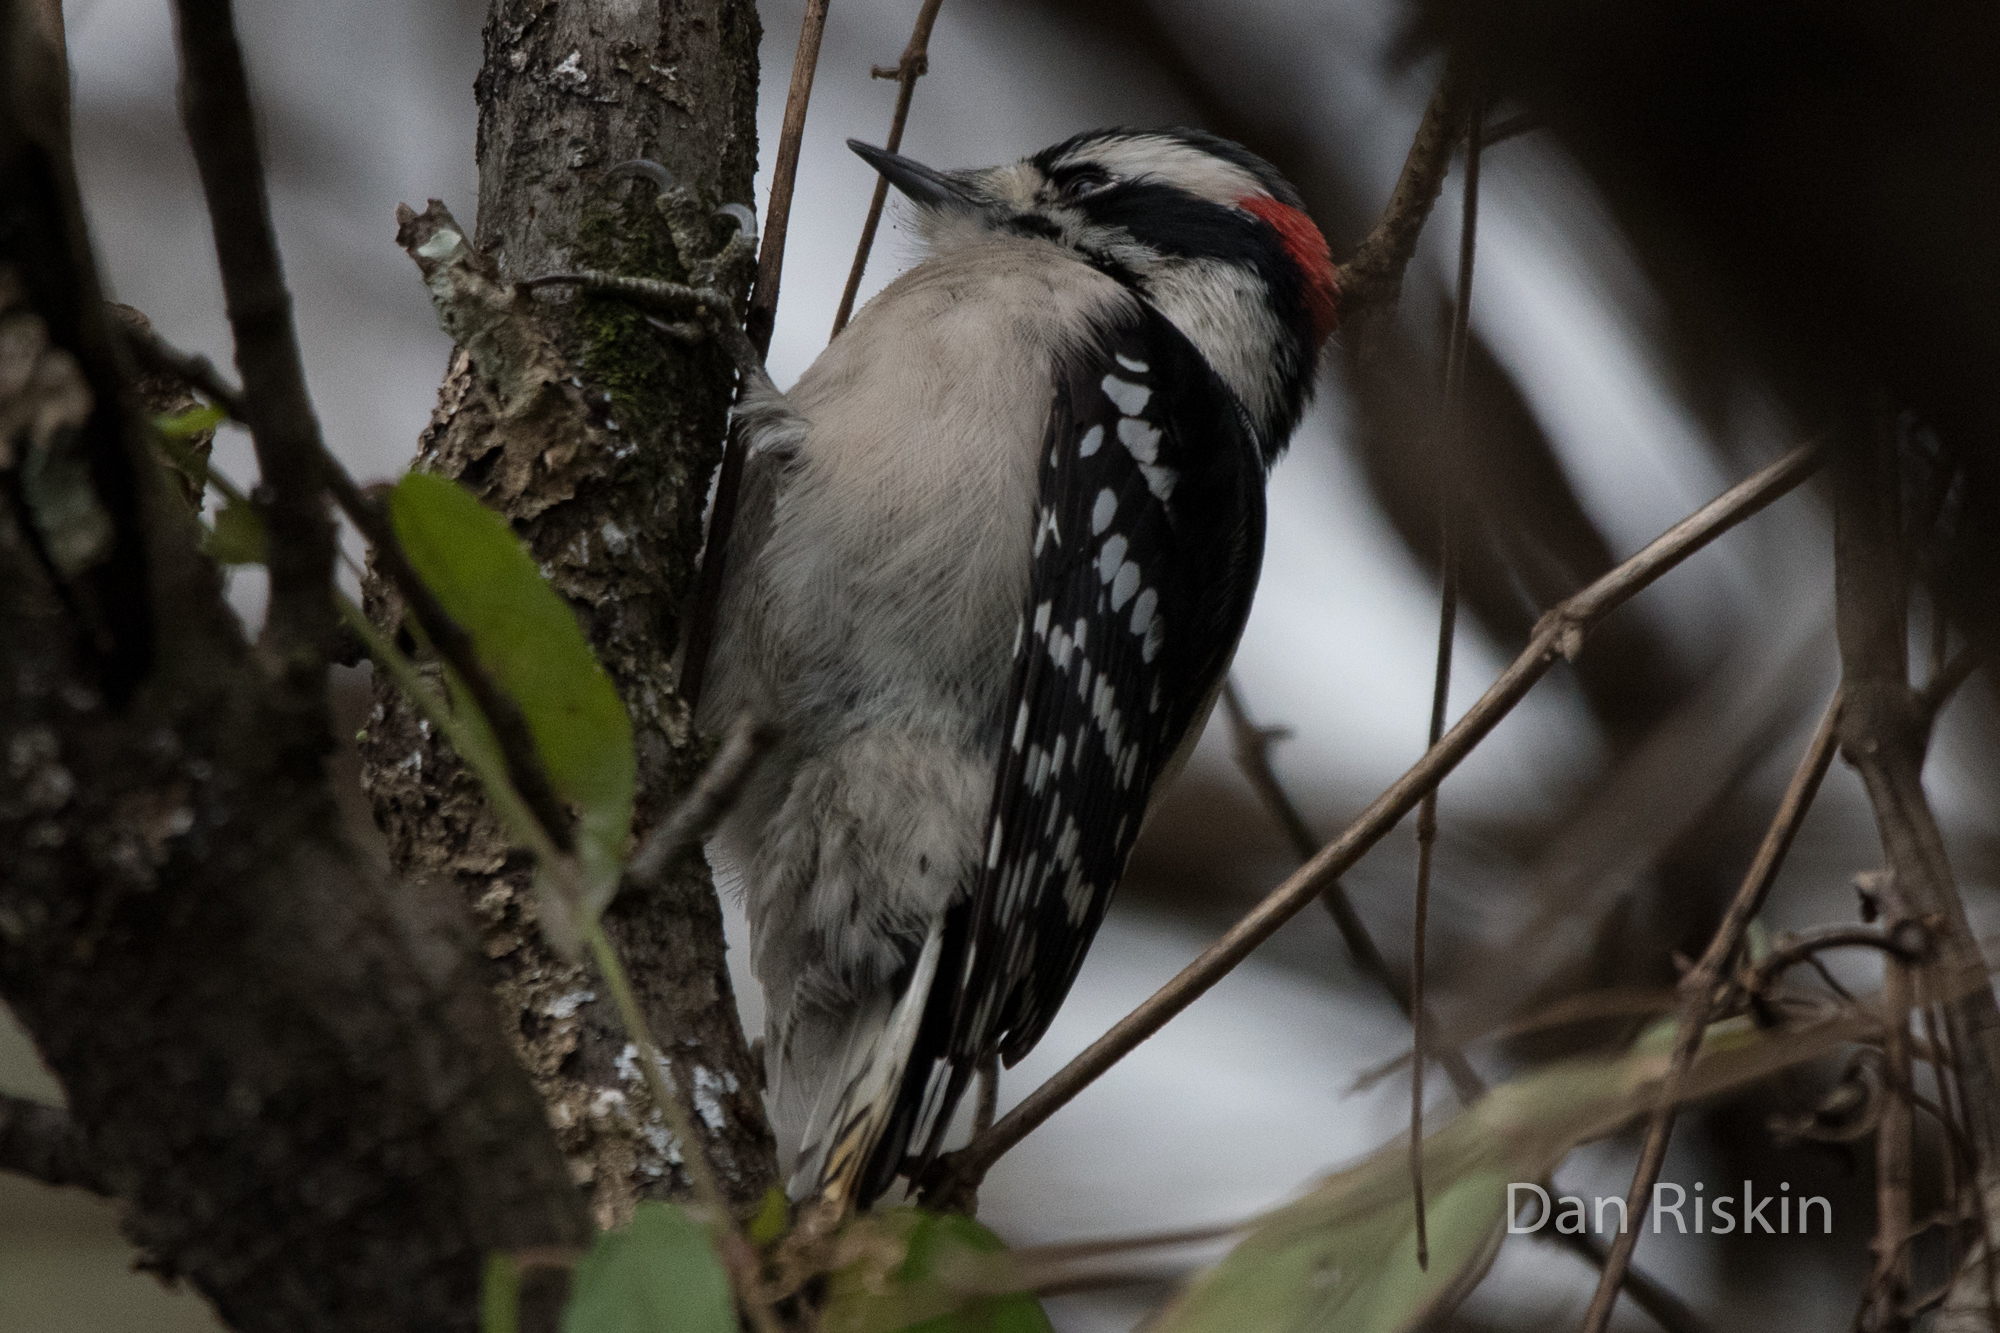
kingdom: Animalia
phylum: Chordata
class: Aves
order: Piciformes
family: Picidae
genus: Dryobates
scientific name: Dryobates pubescens
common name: Downy woodpecker
